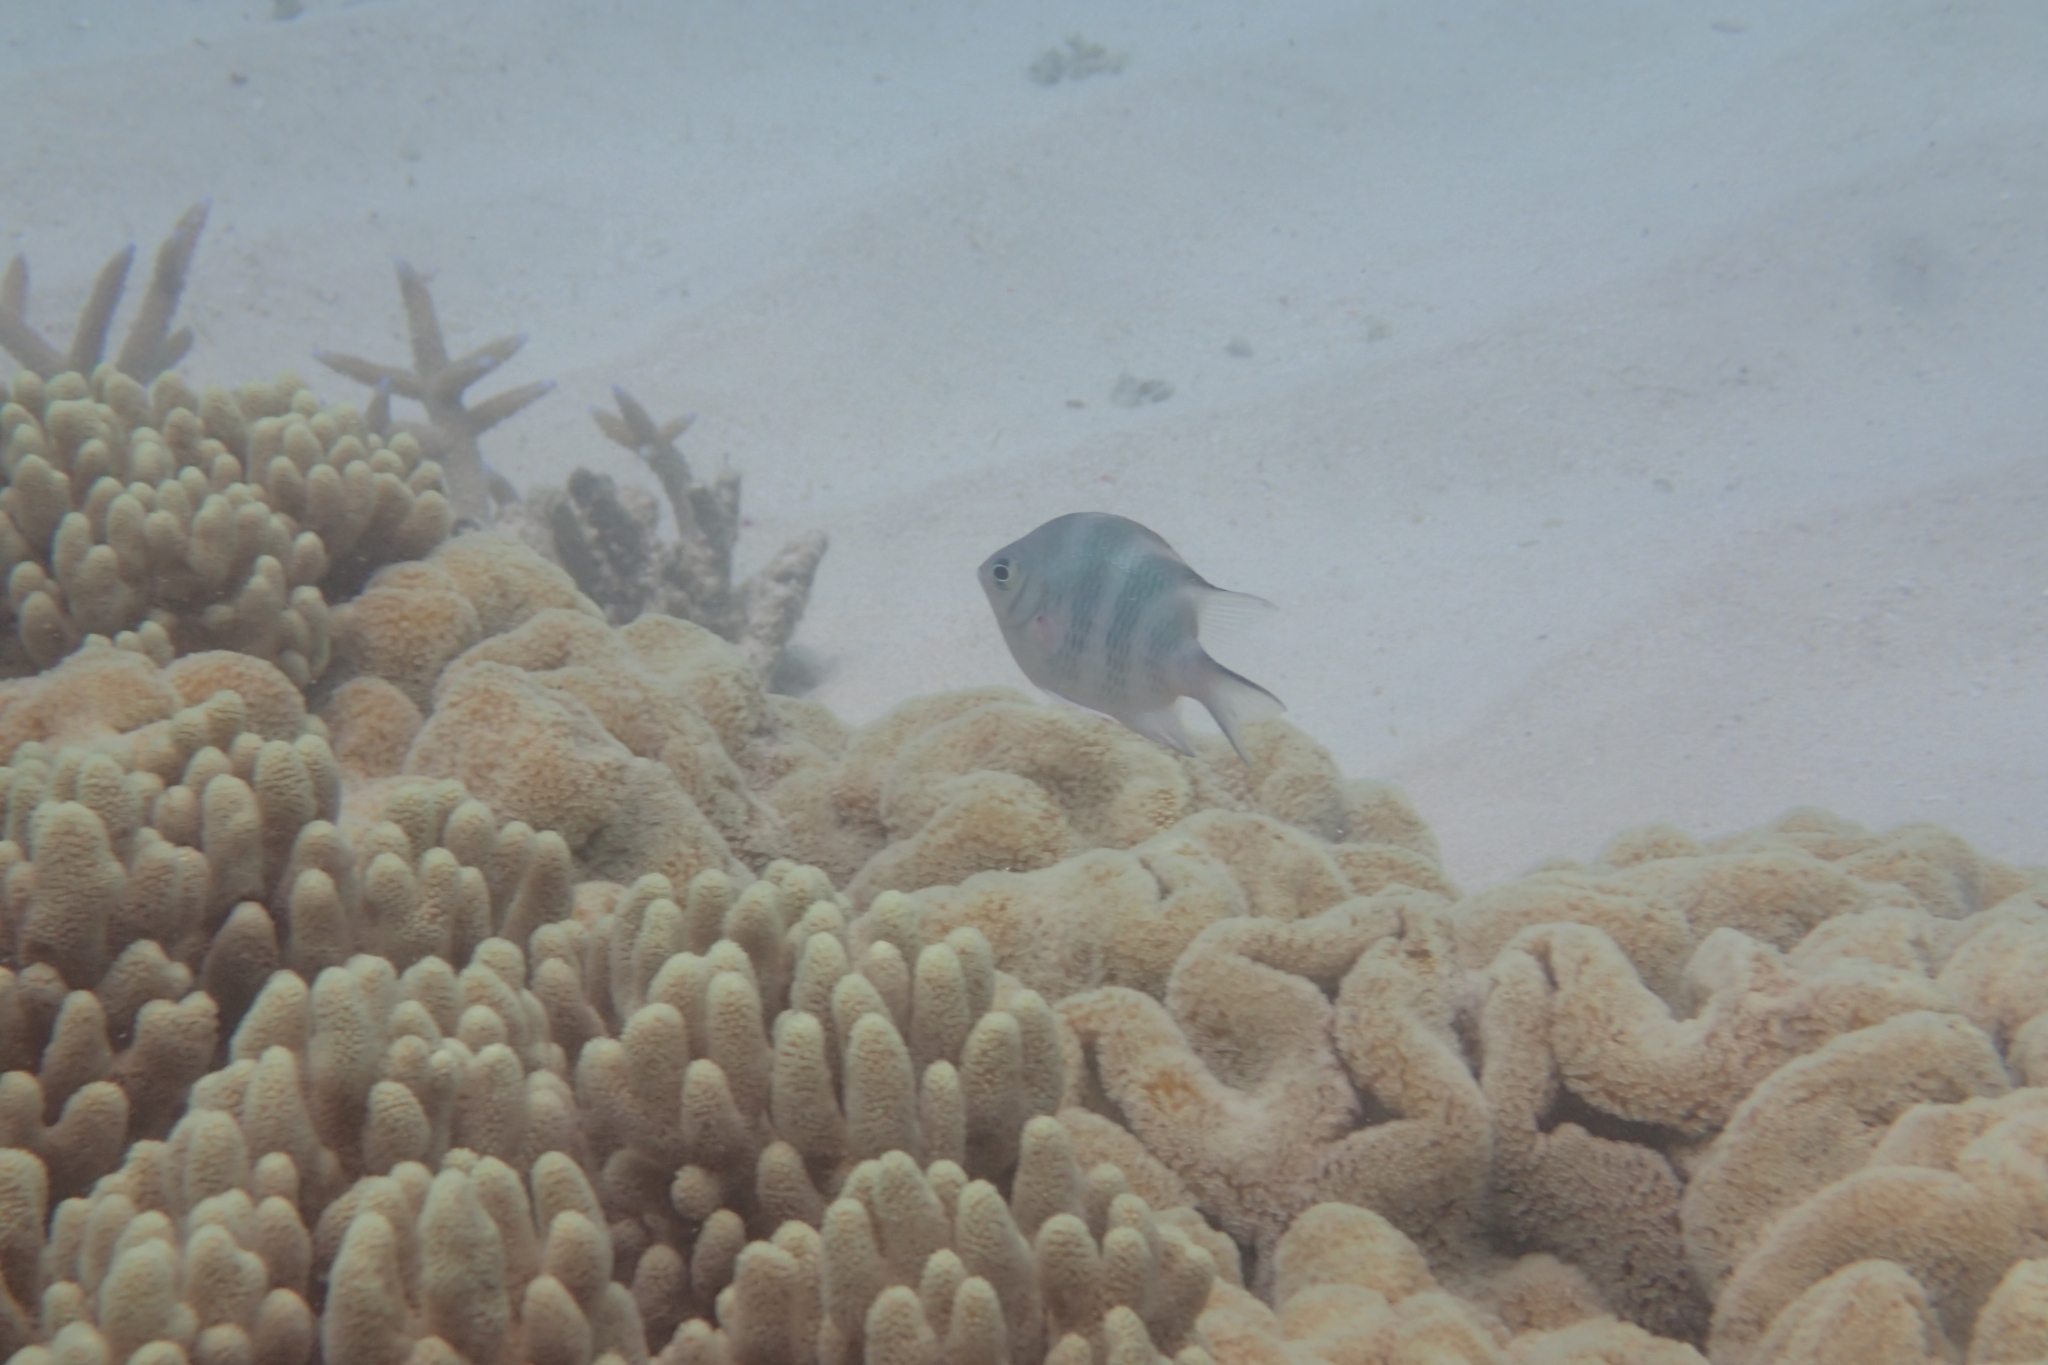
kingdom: Animalia
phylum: Chordata
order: Perciformes
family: Pomacentridae
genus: Amblyglyphidodon
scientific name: Amblyglyphidodon curacao
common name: Staghorn damsel
